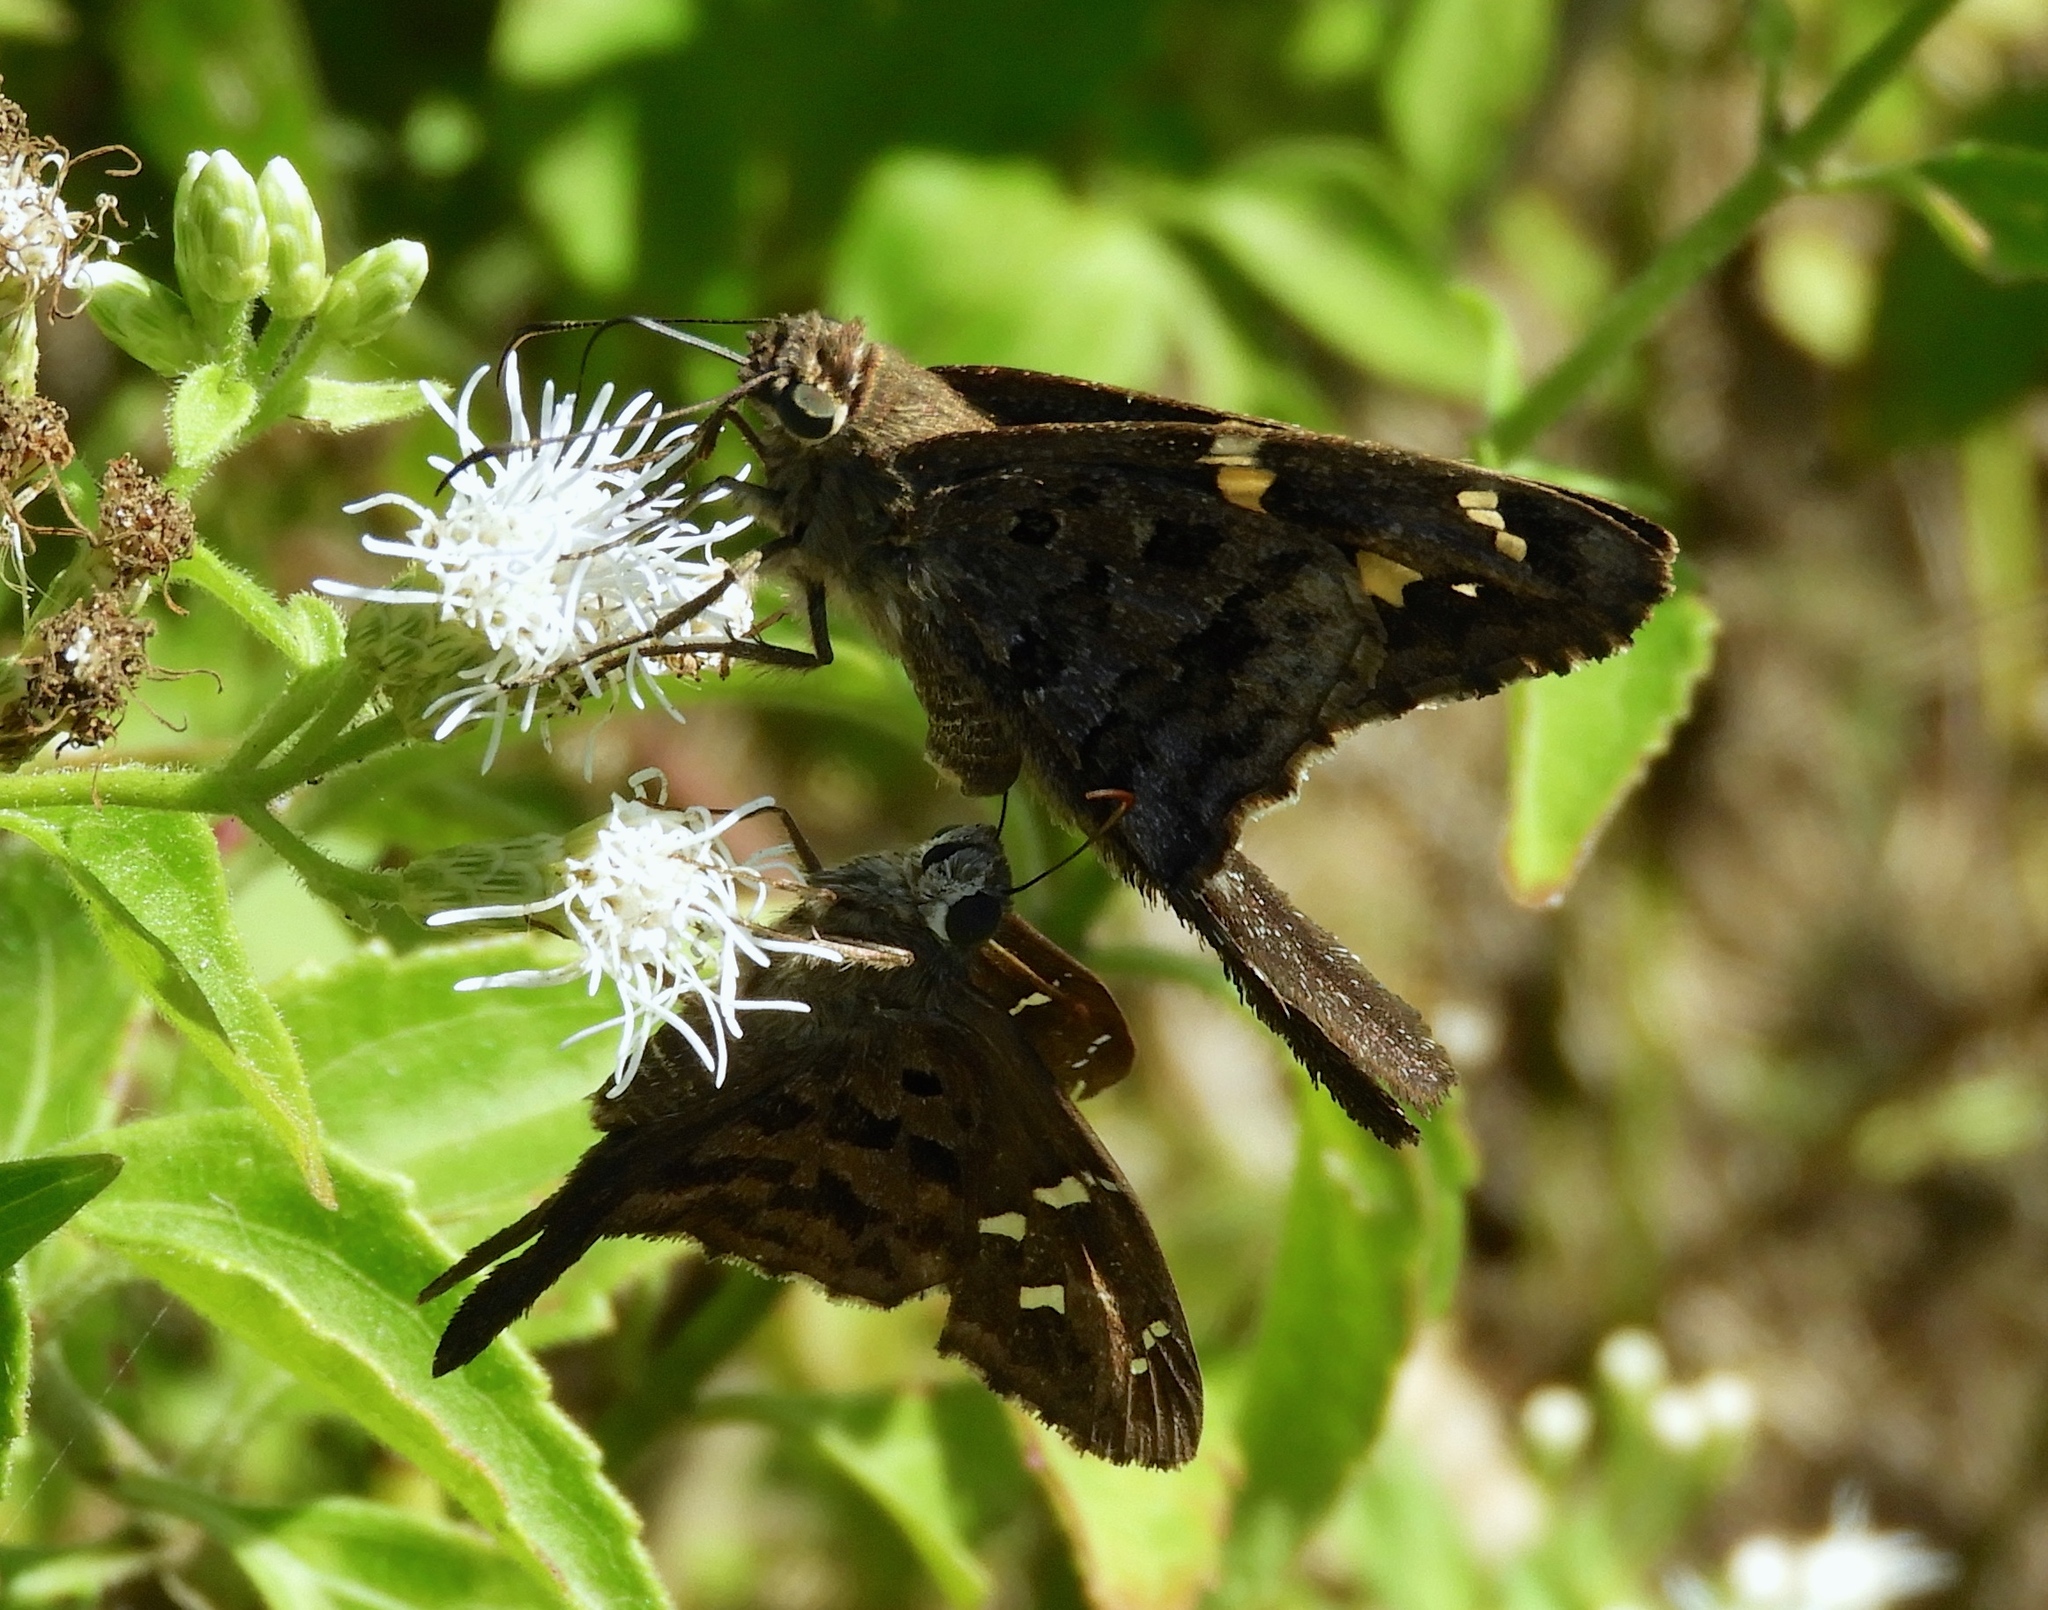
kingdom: Animalia
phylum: Arthropoda
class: Insecta
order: Lepidoptera
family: Hesperiidae
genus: Thorybes
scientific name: Thorybes
